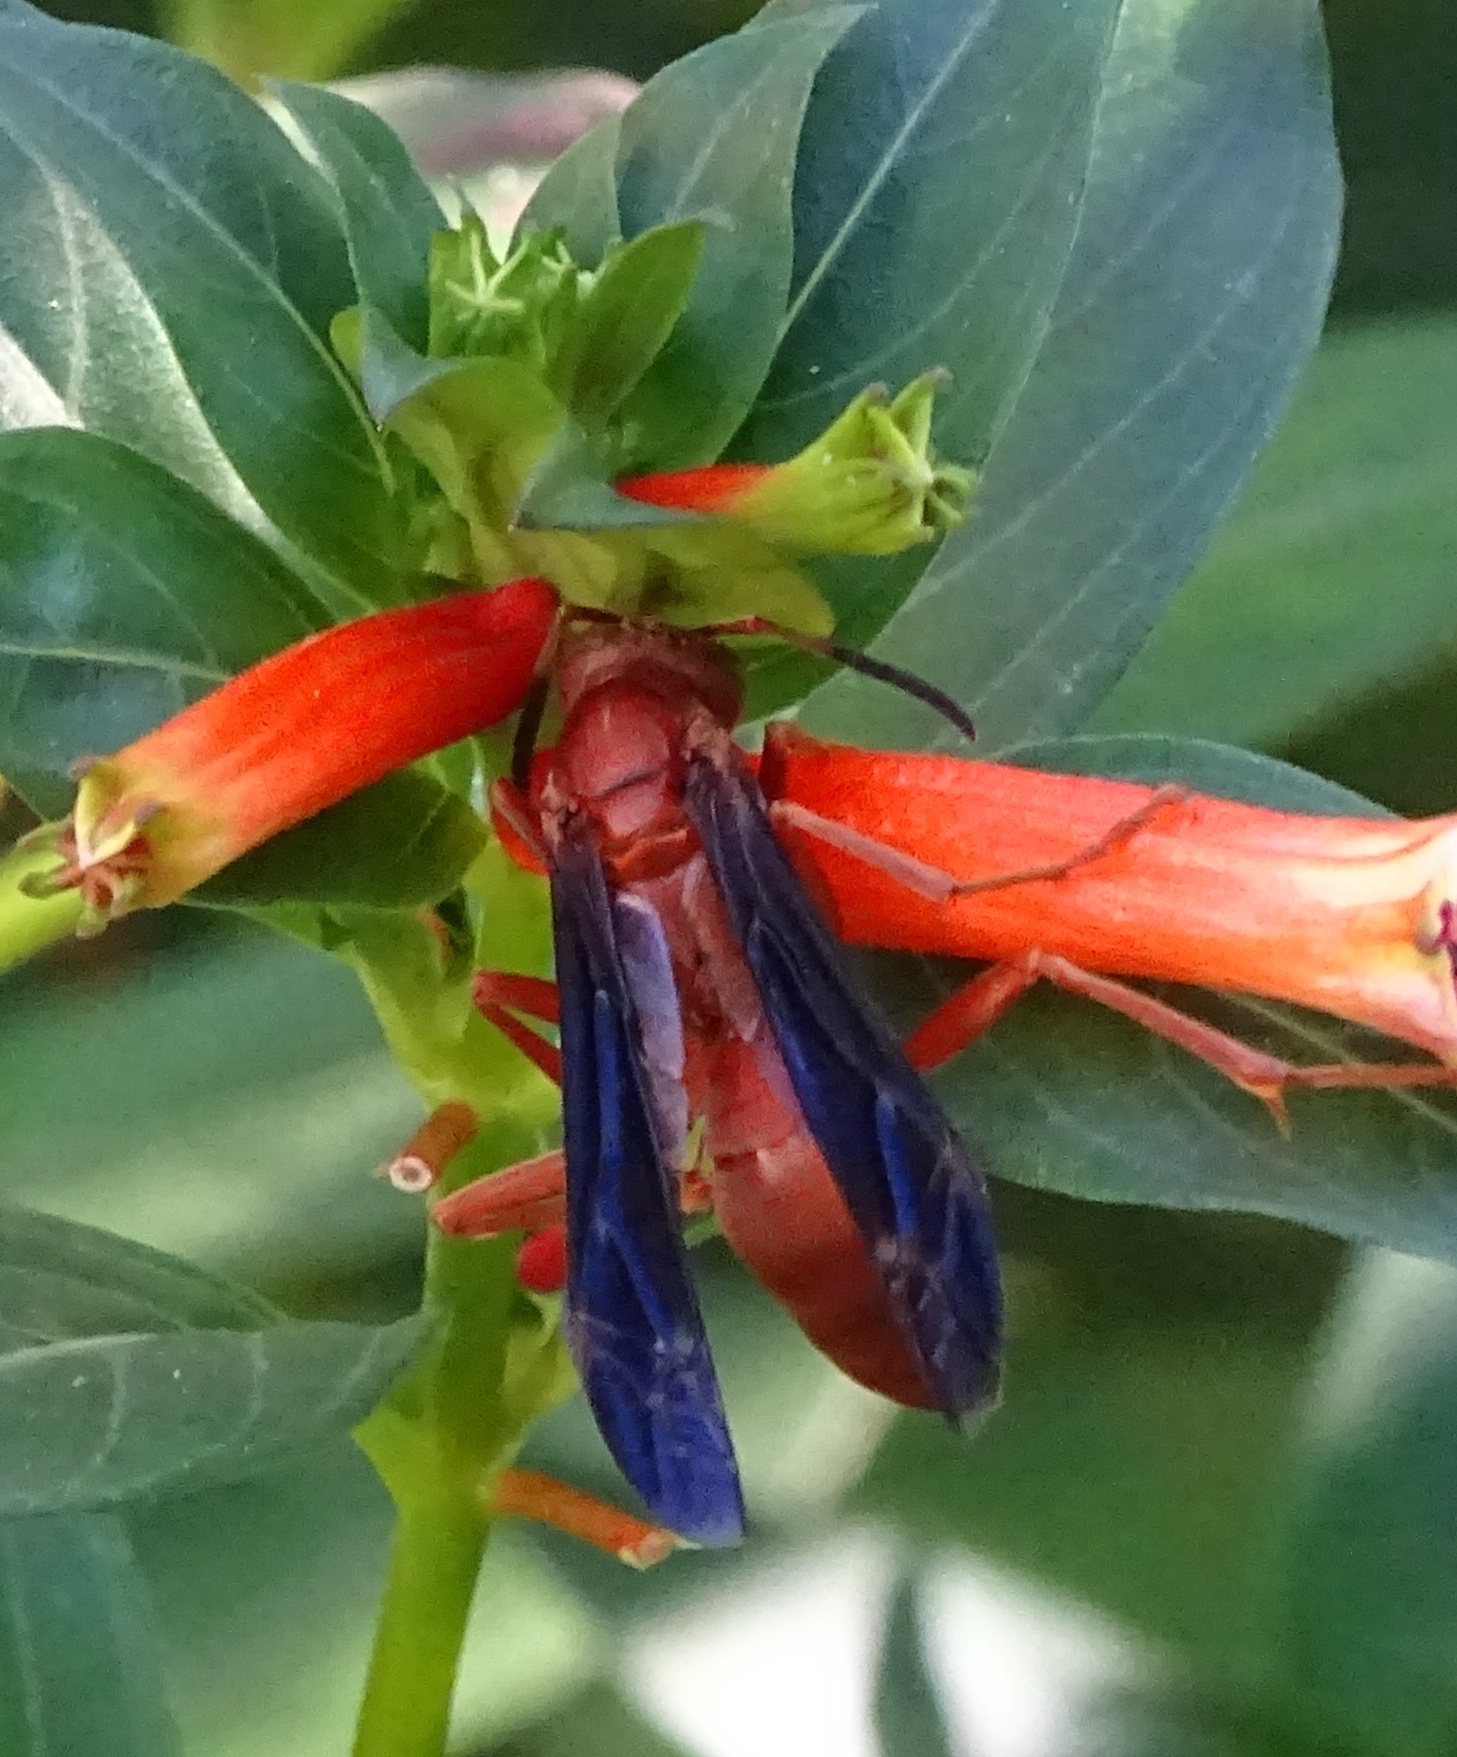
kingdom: Animalia
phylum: Arthropoda
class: Insecta
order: Hymenoptera
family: Vespidae
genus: Fuscopolistes
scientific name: Fuscopolistes
